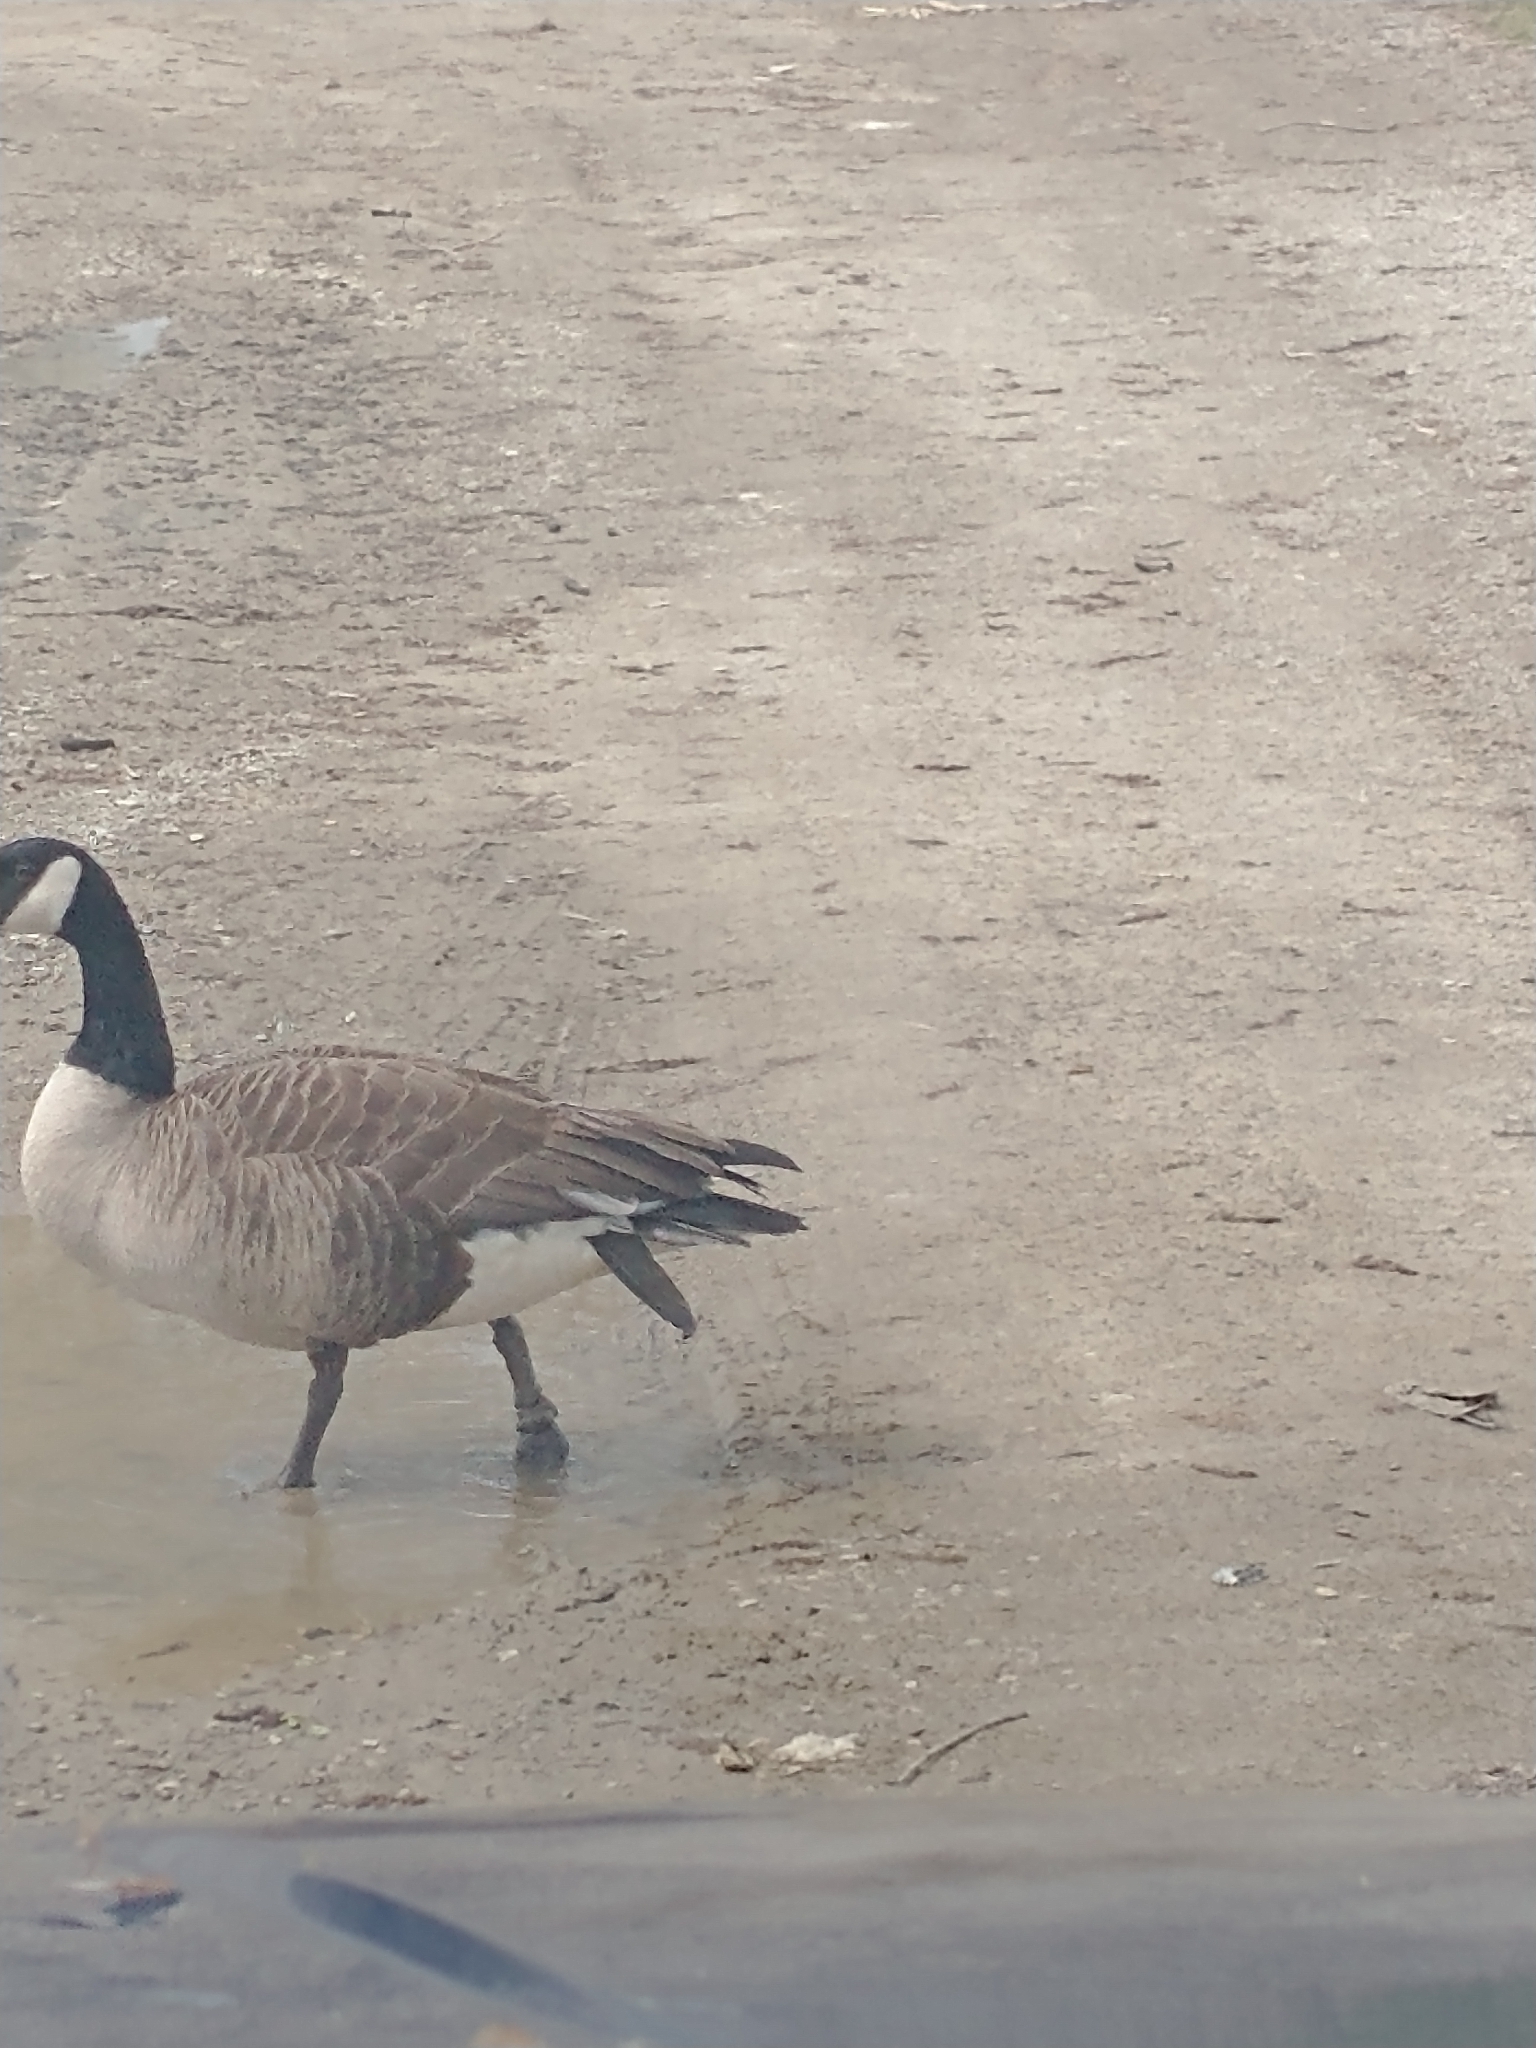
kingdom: Animalia
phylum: Chordata
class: Aves
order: Anseriformes
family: Anatidae
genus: Branta
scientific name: Branta canadensis
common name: Canada goose
